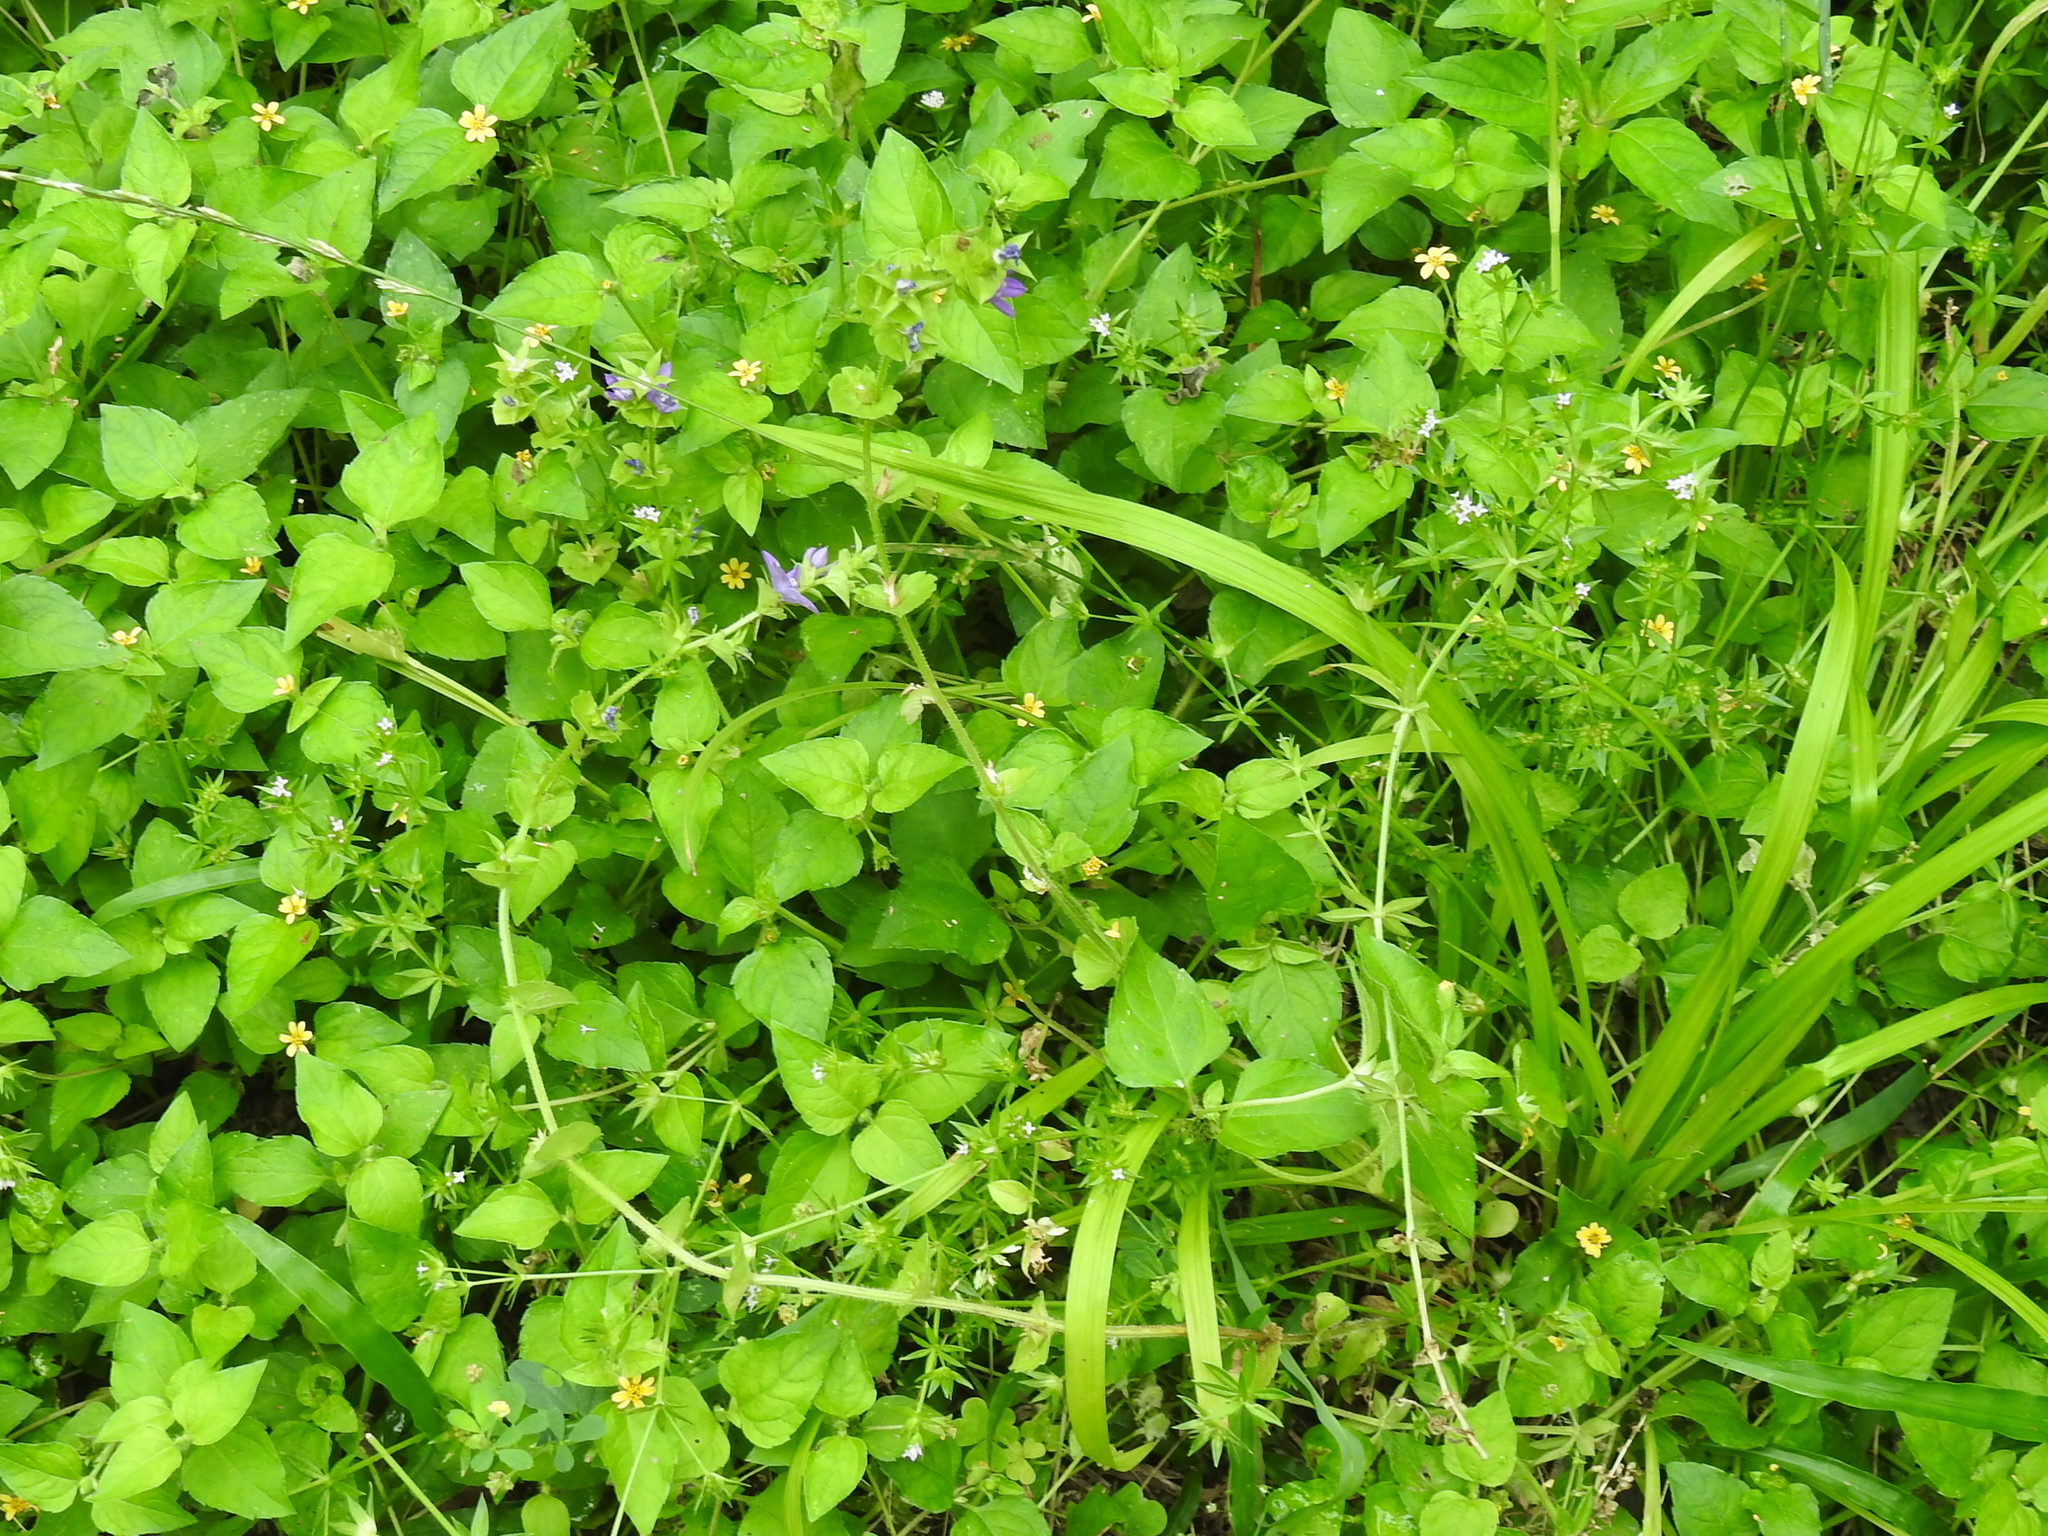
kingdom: Plantae
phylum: Tracheophyta
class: Magnoliopsida
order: Asterales
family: Campanulaceae
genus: Triodanis
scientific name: Triodanis texana
